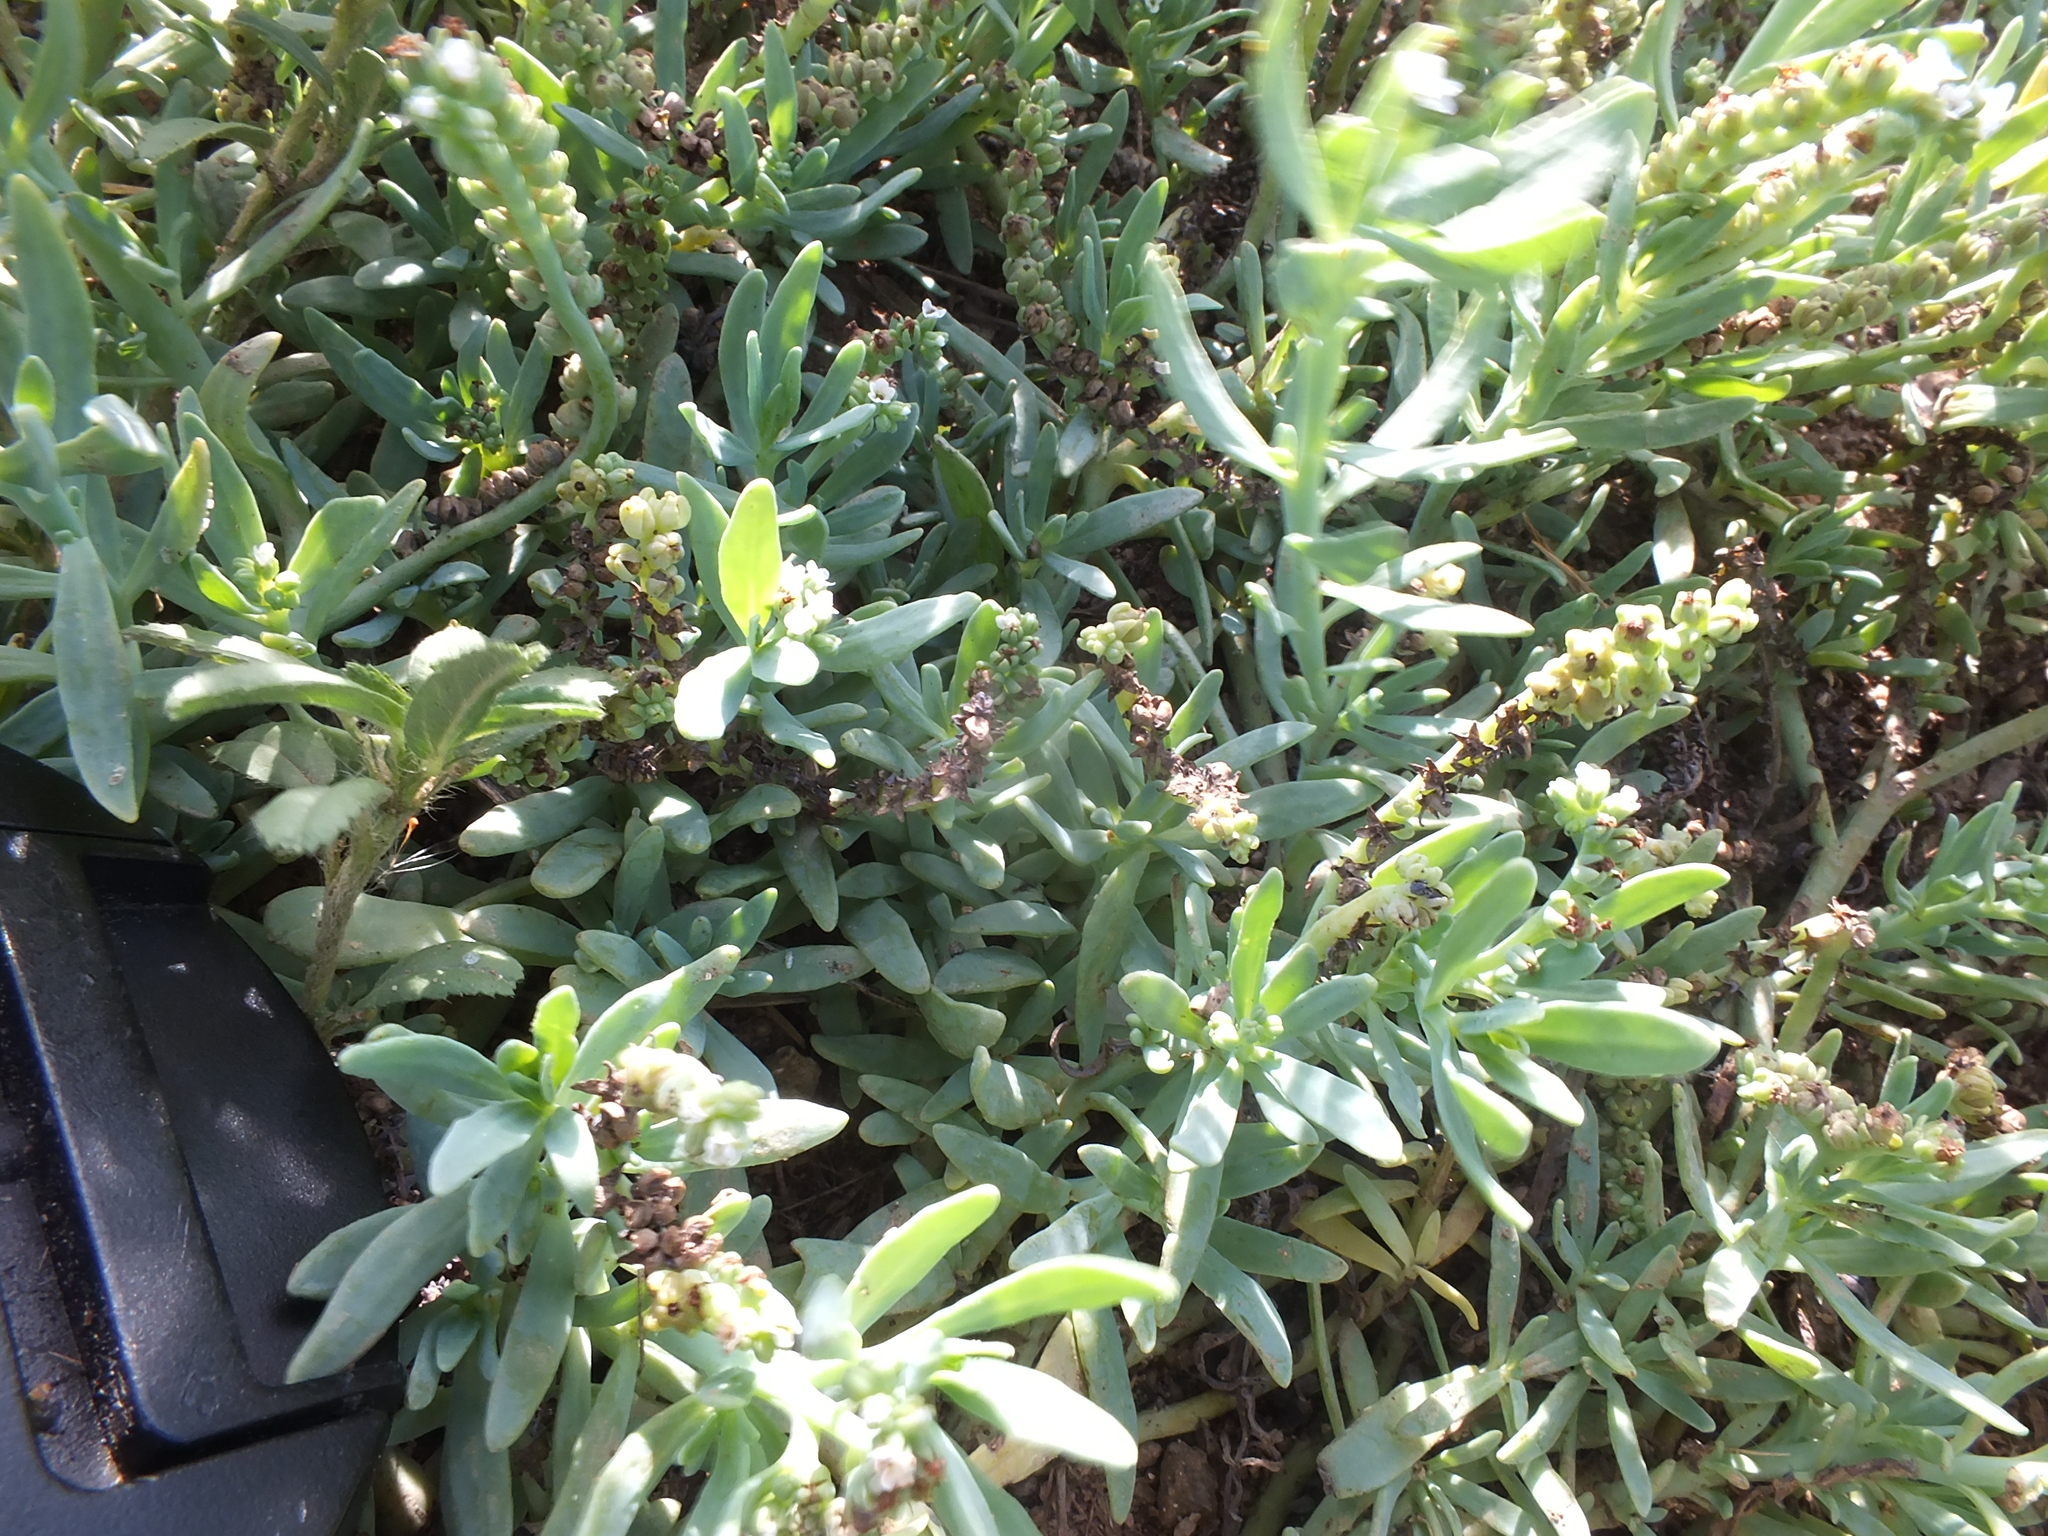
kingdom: Plantae
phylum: Tracheophyta
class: Magnoliopsida
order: Boraginales
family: Heliotropiaceae
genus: Heliotropium
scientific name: Heliotropium curassavicum
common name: Seaside heliotrope
